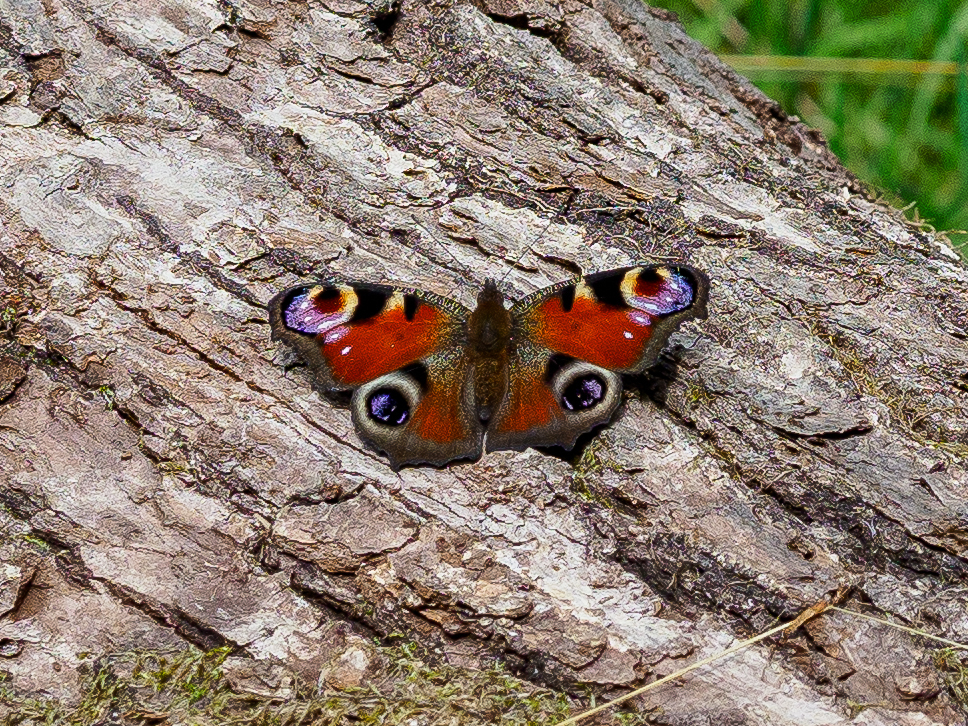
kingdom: Animalia
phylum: Arthropoda
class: Insecta
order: Lepidoptera
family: Nymphalidae
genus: Aglais
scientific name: Aglais io
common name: Peacock
